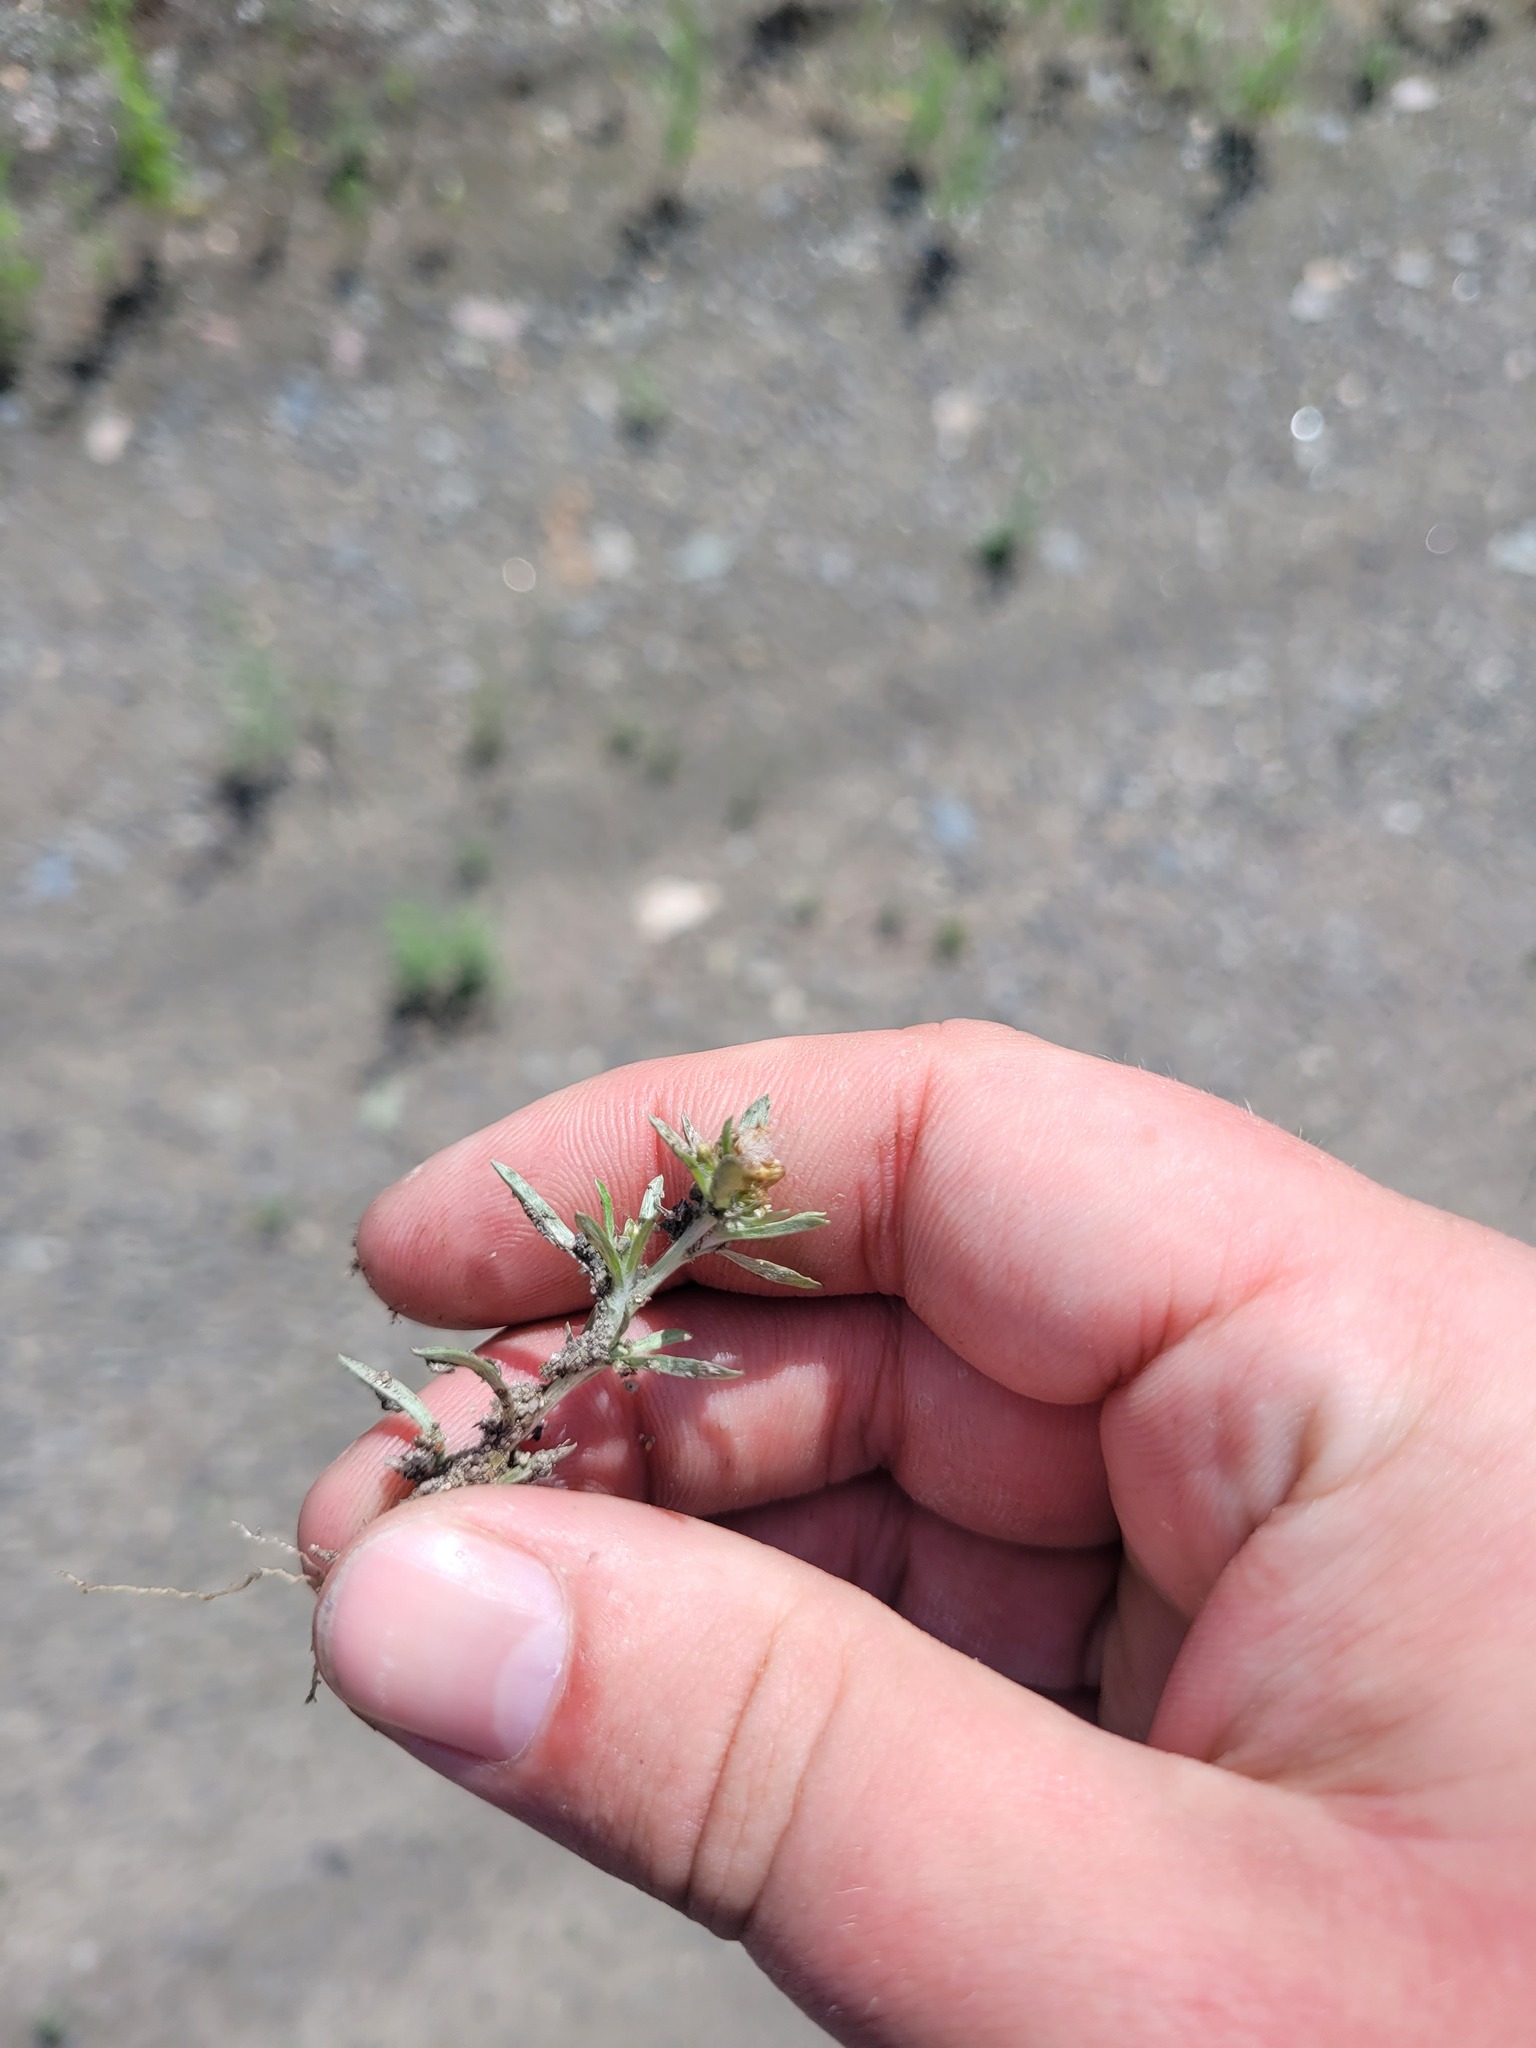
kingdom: Plantae
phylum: Tracheophyta
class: Magnoliopsida
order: Asterales
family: Asteraceae
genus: Gnaphalium
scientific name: Gnaphalium uliginosum
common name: Marsh cudweed
